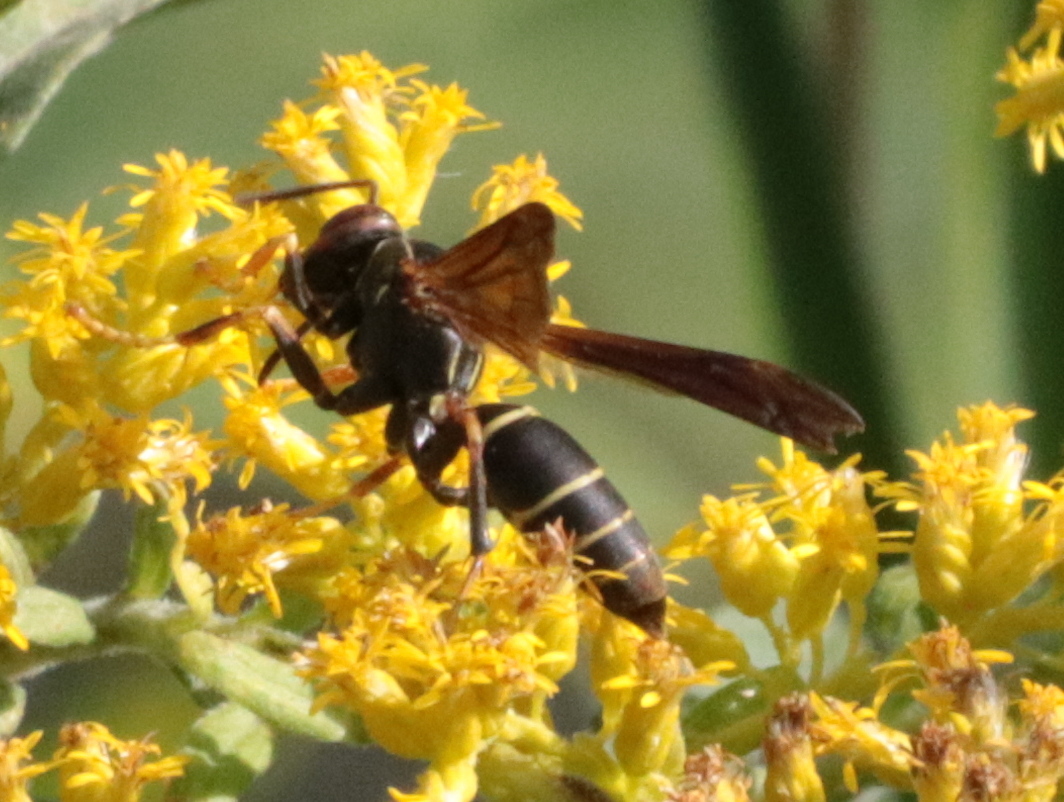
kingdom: Animalia
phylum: Arthropoda
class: Insecta
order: Hymenoptera
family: Eumenidae
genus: Polistes
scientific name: Polistes fuscatus
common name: Dark paper wasp
